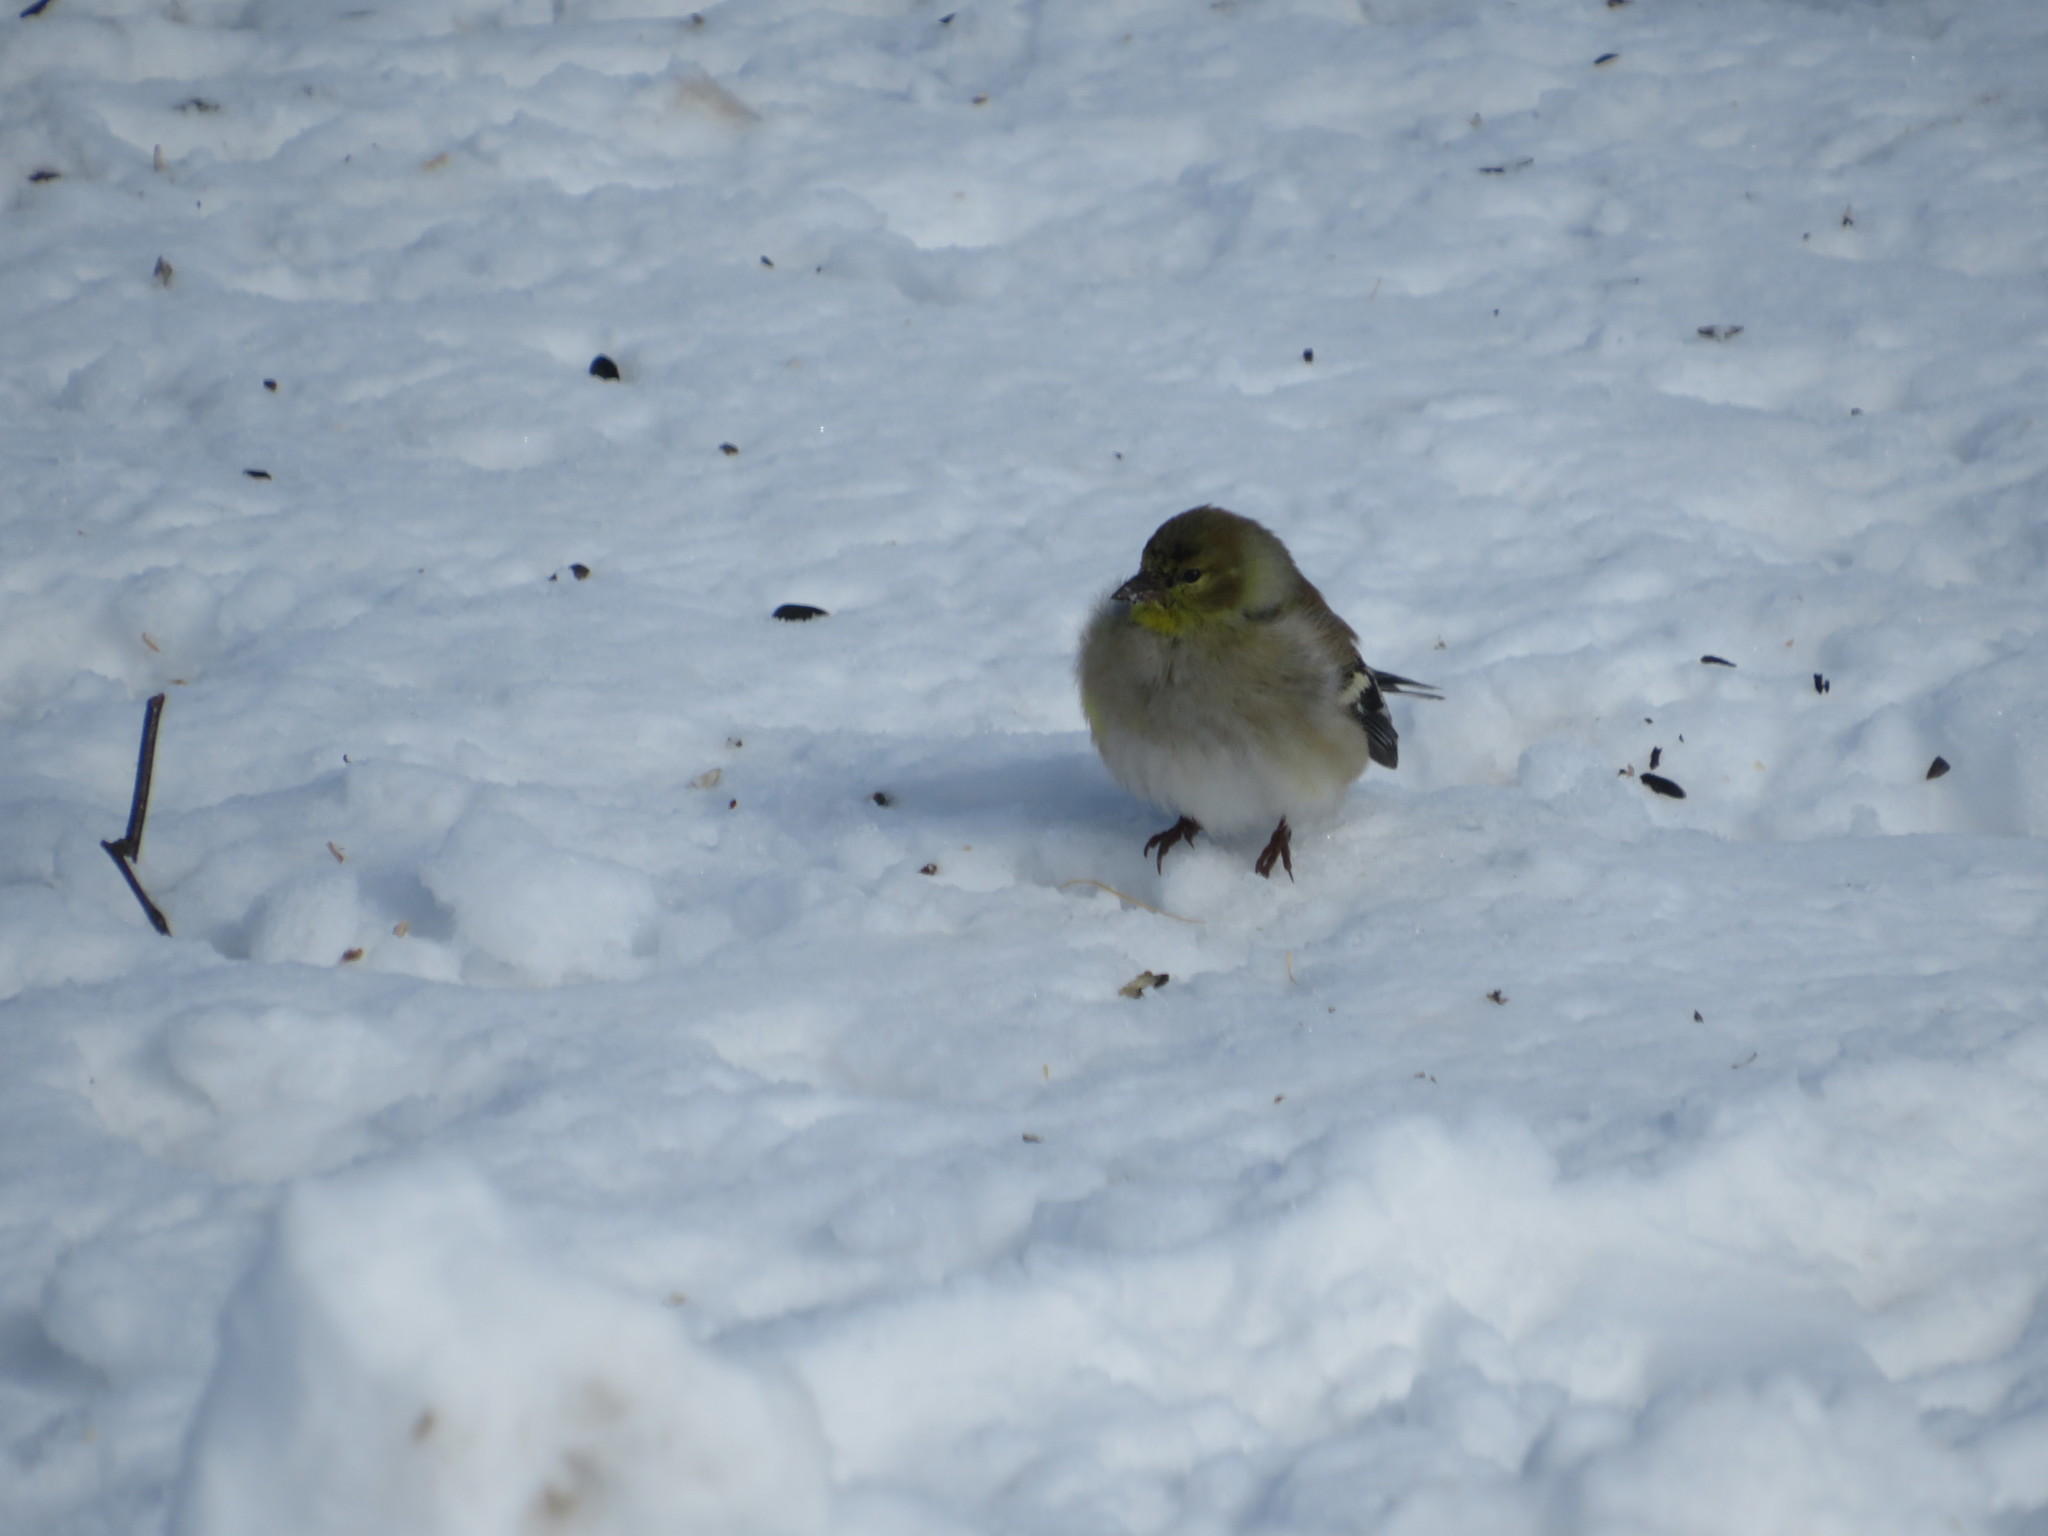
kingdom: Animalia
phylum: Chordata
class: Aves
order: Passeriformes
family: Fringillidae
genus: Spinus
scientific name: Spinus tristis
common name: American goldfinch
